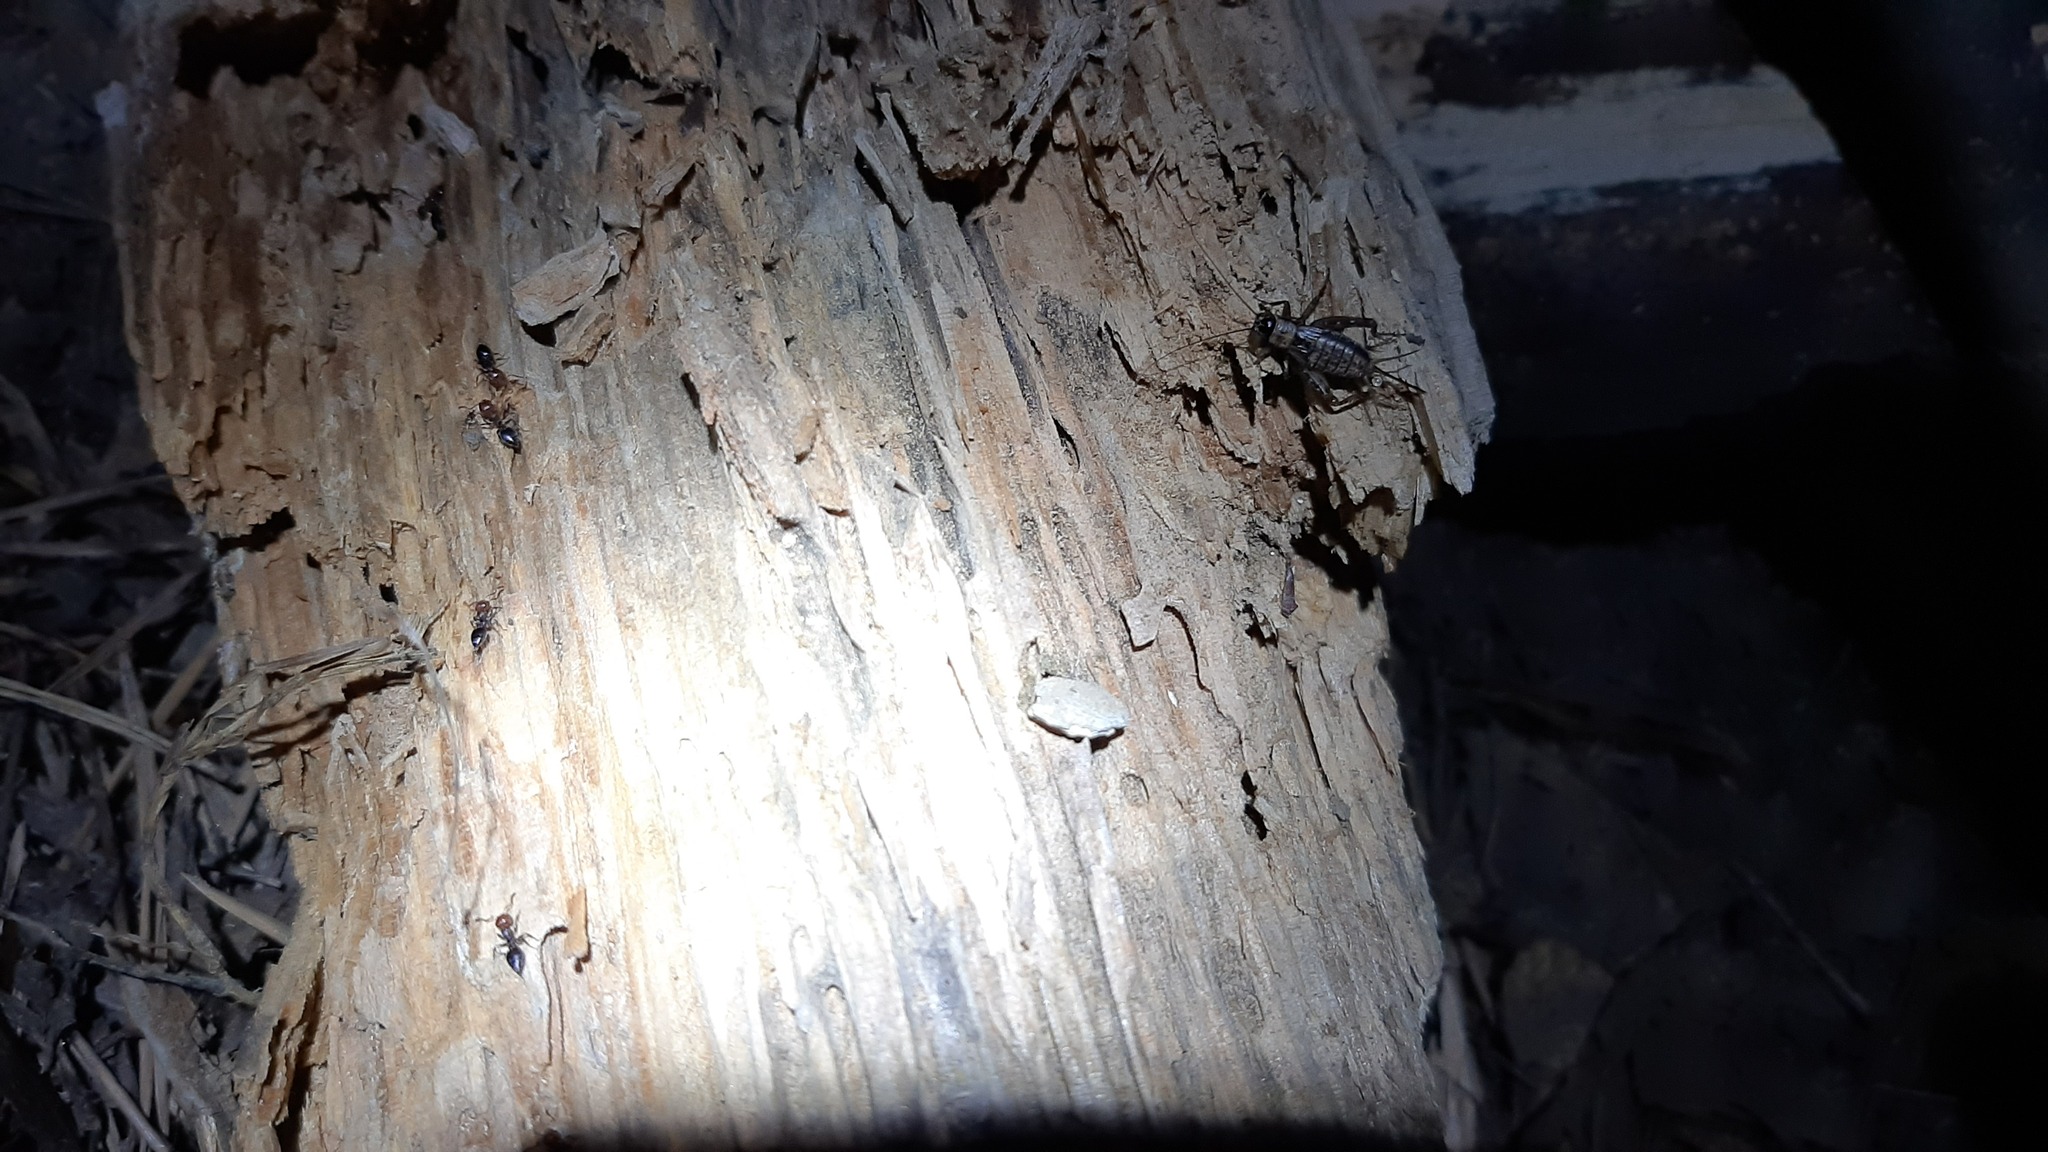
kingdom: Animalia
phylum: Arthropoda
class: Insecta
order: Orthoptera
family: Trigonidiidae
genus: Nemobius
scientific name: Nemobius sylvestris
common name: Wood-cricket
